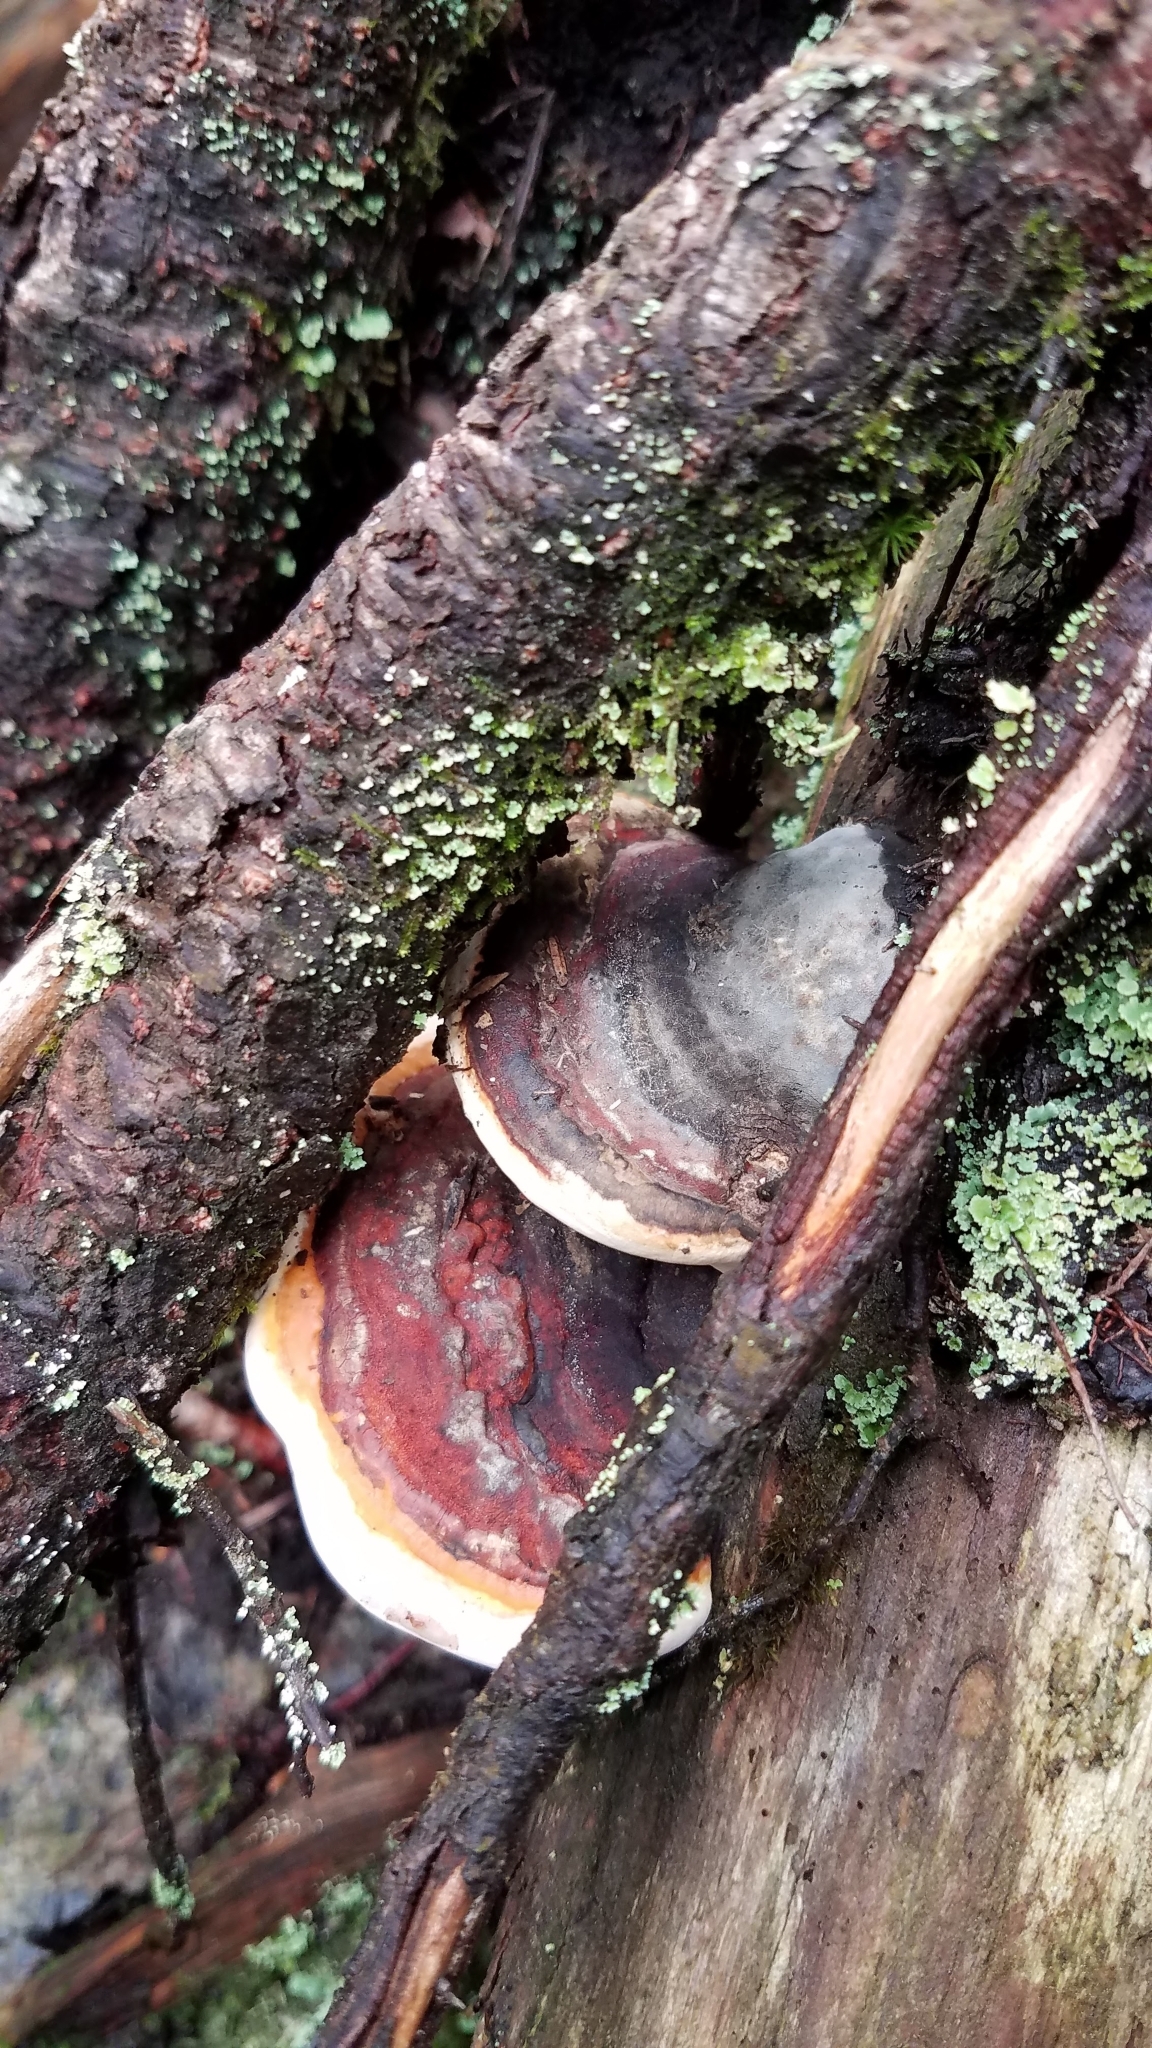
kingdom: Fungi
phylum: Basidiomycota
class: Agaricomycetes
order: Polyporales
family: Fomitopsidaceae
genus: Fomitopsis
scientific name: Fomitopsis mounceae
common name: Northern red belt
